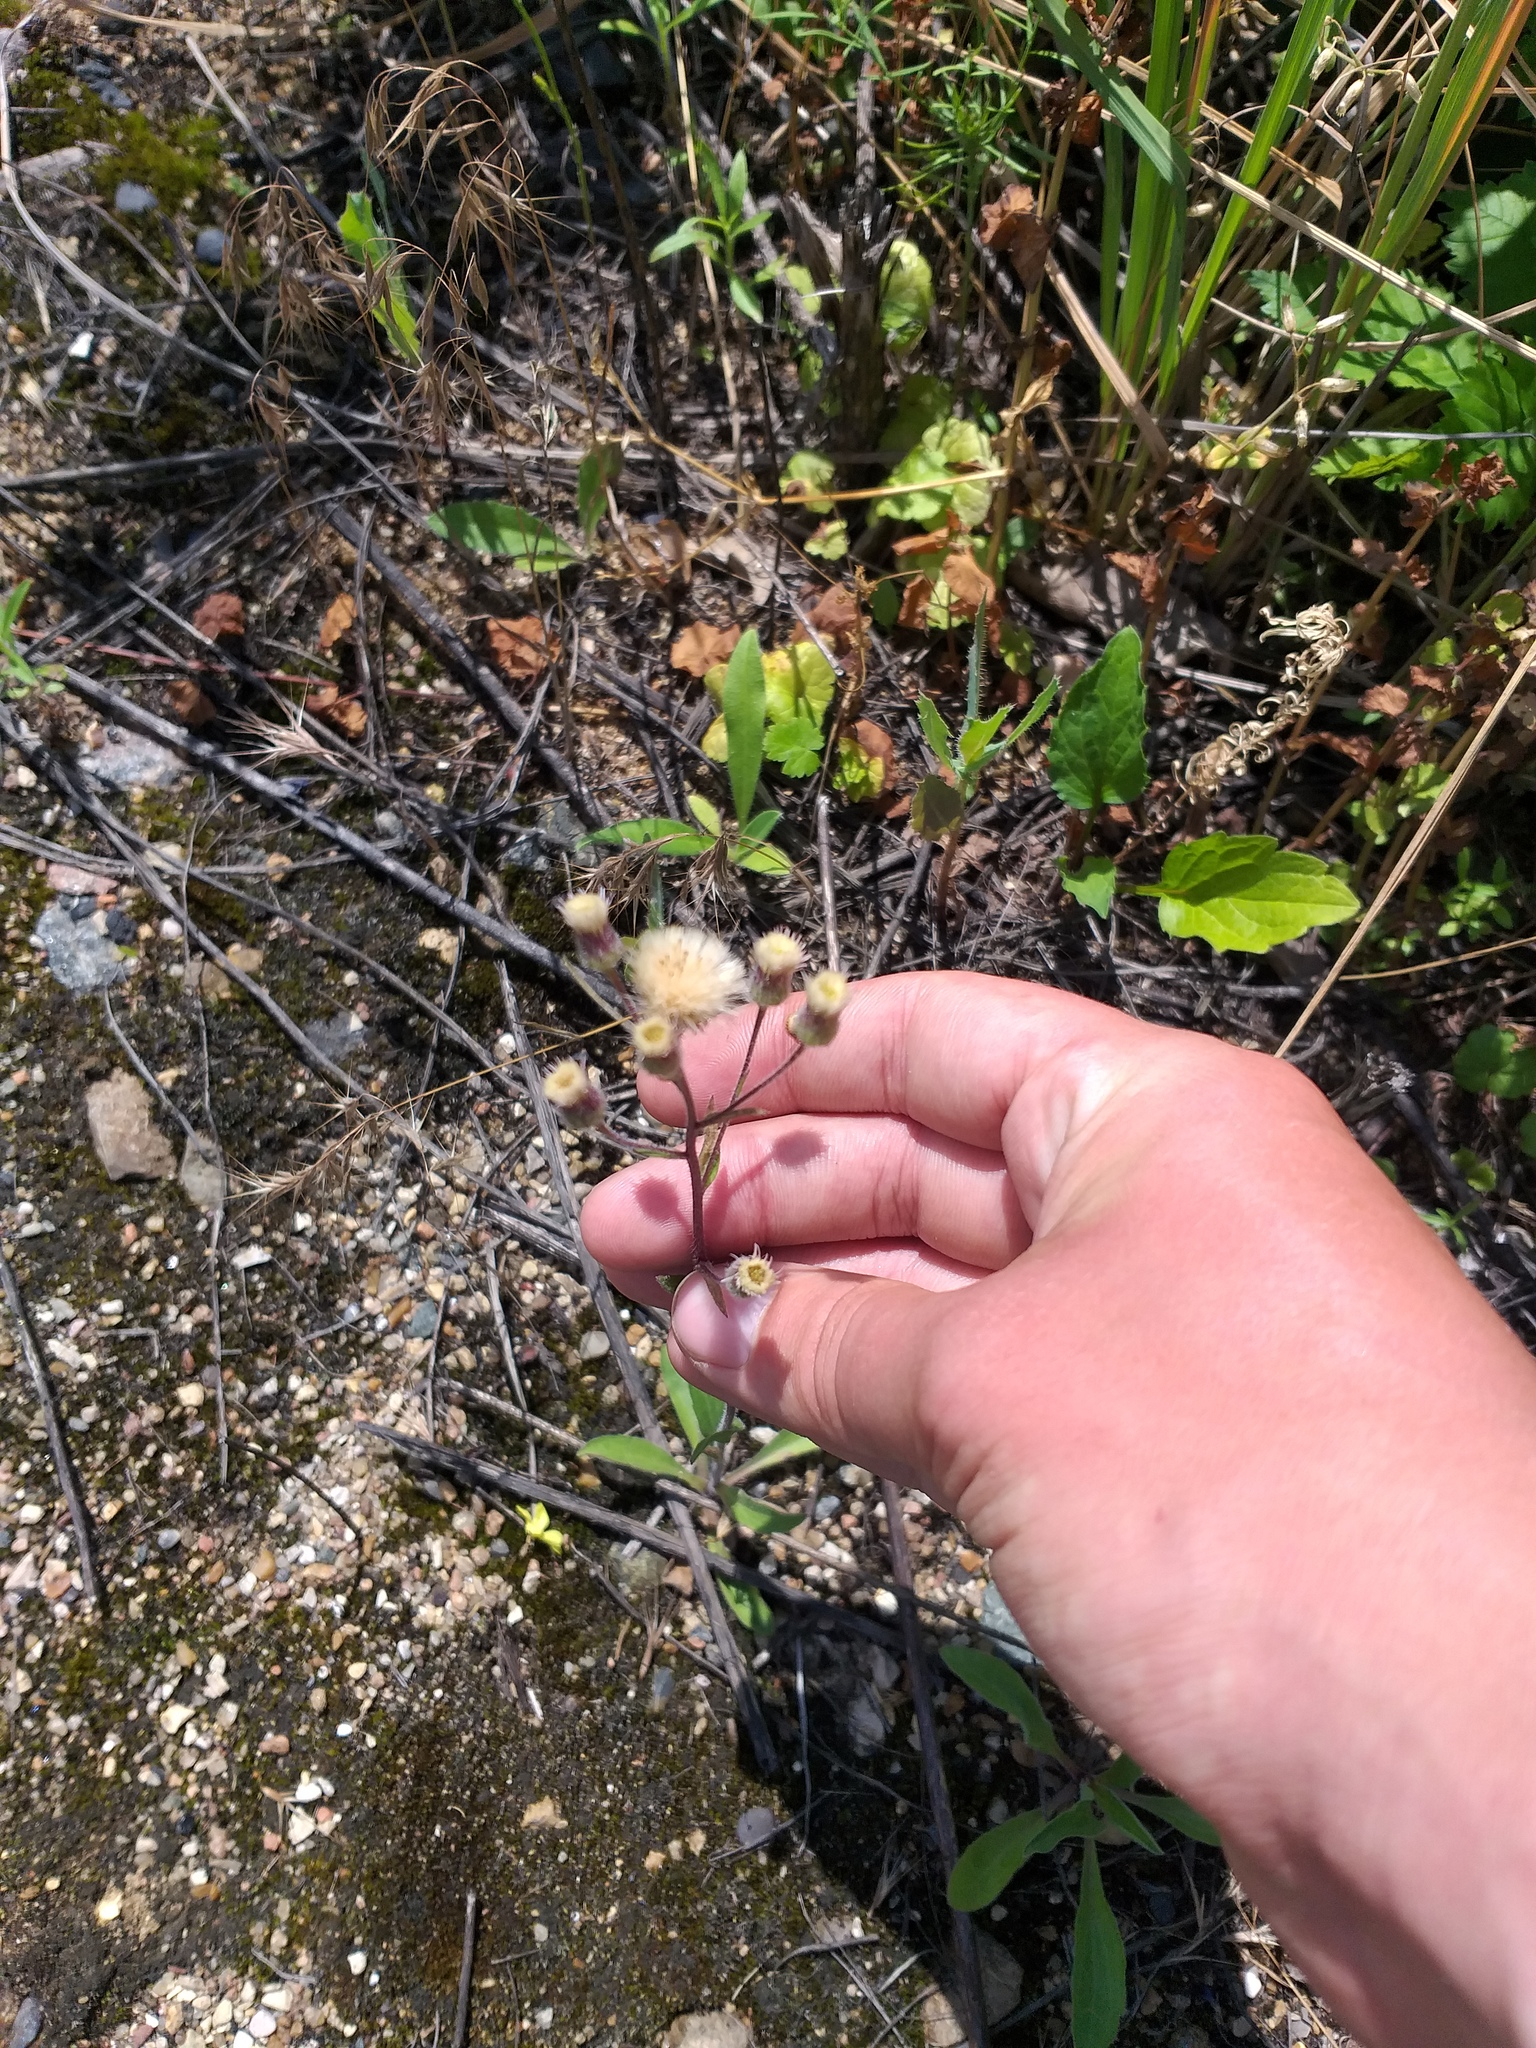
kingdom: Plantae
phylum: Tracheophyta
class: Magnoliopsida
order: Asterales
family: Asteraceae
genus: Erigeron
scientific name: Erigeron acris
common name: Blue fleabane
